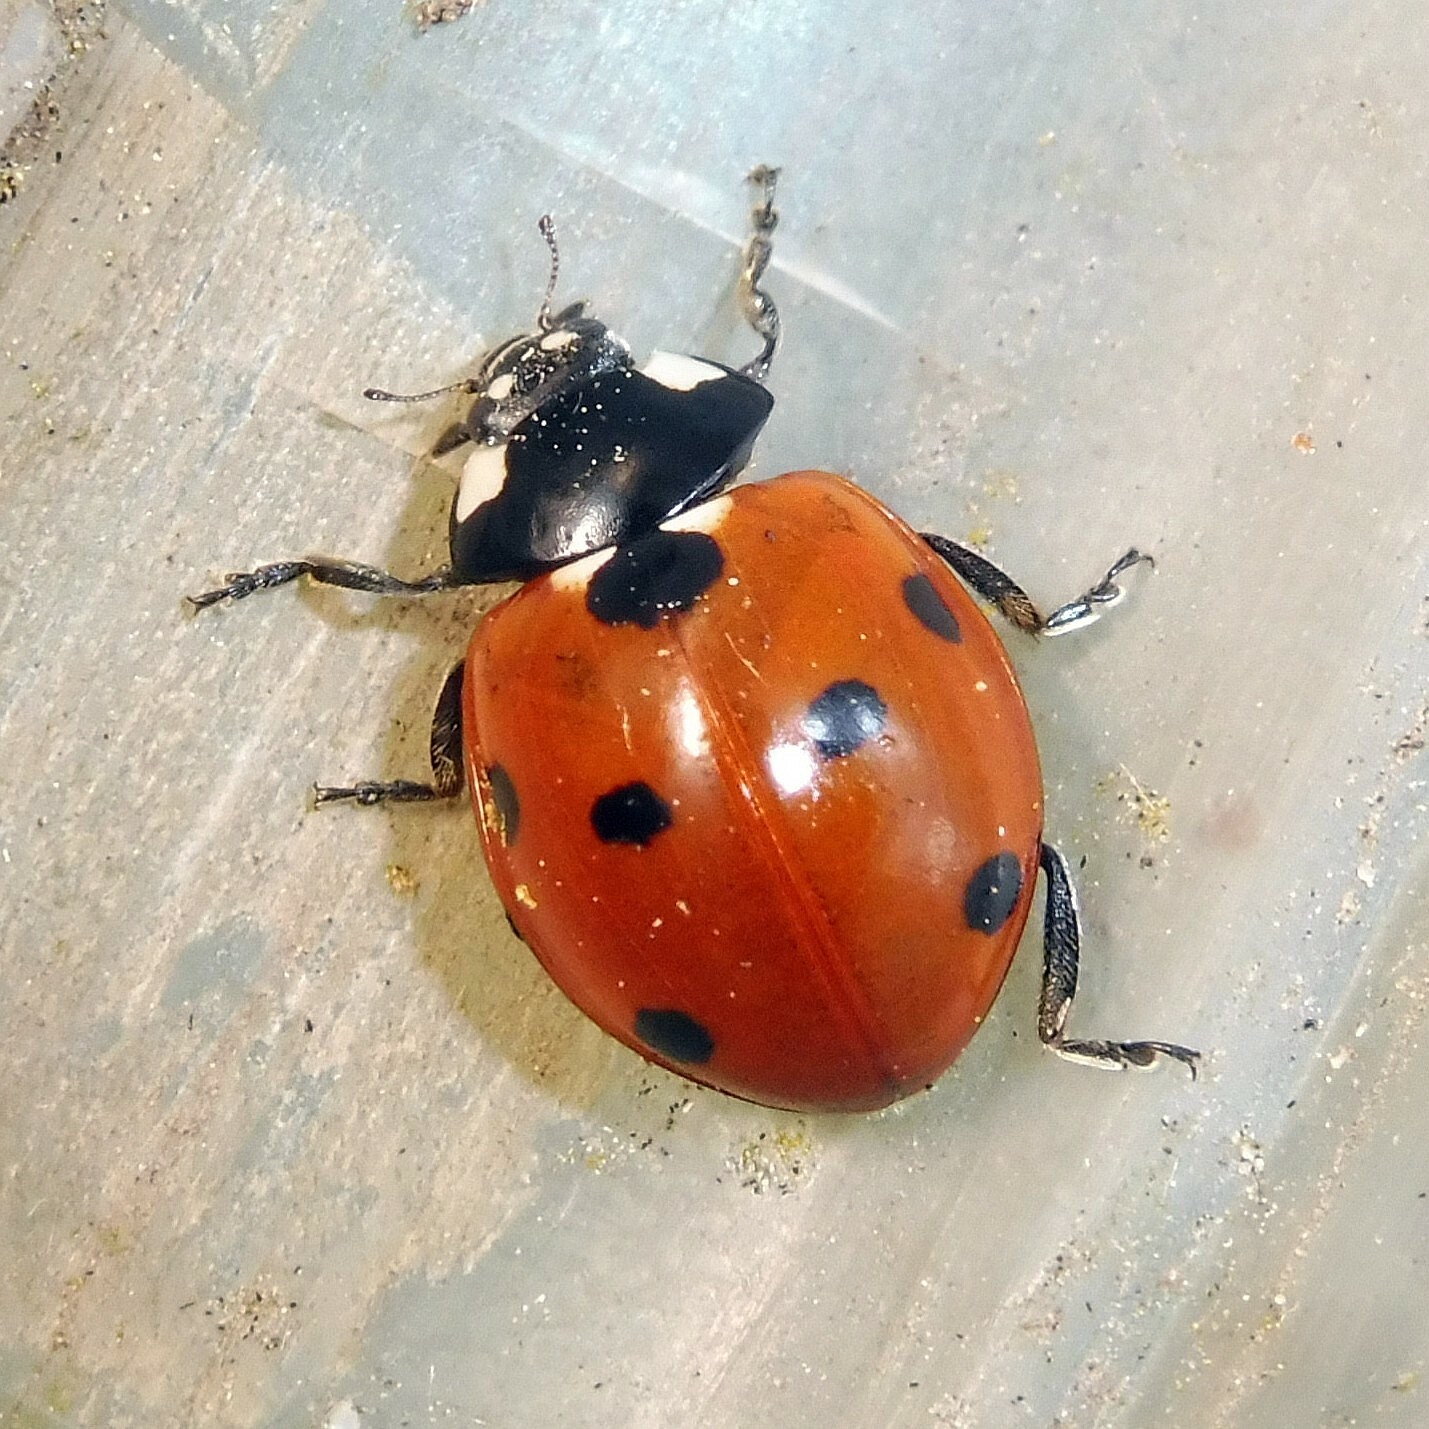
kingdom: Animalia
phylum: Arthropoda
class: Insecta
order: Coleoptera
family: Coccinellidae
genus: Coccinella
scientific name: Coccinella septempunctata
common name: Sevenspotted lady beetle
